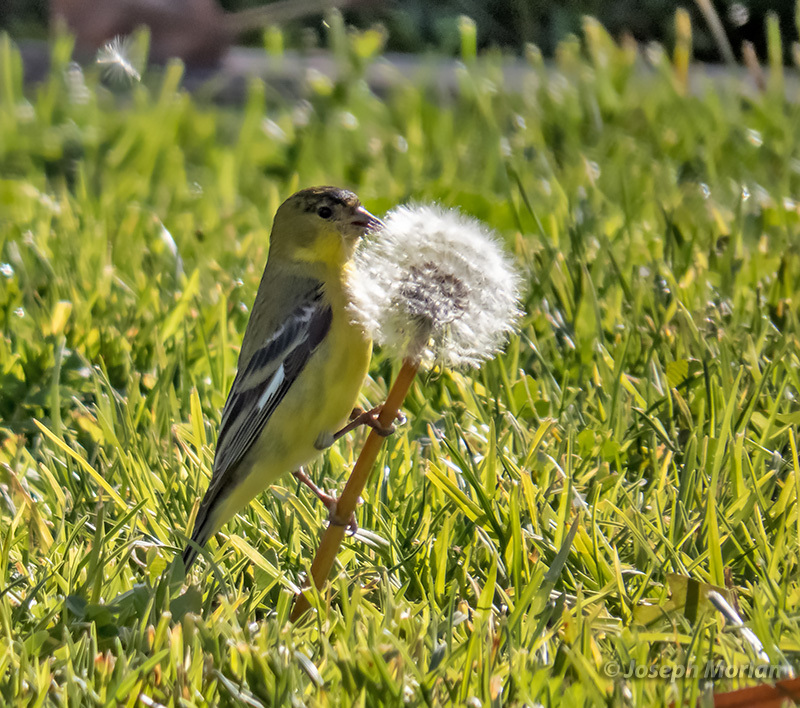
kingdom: Animalia
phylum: Chordata
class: Aves
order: Passeriformes
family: Fringillidae
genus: Spinus
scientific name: Spinus psaltria
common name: Lesser goldfinch
